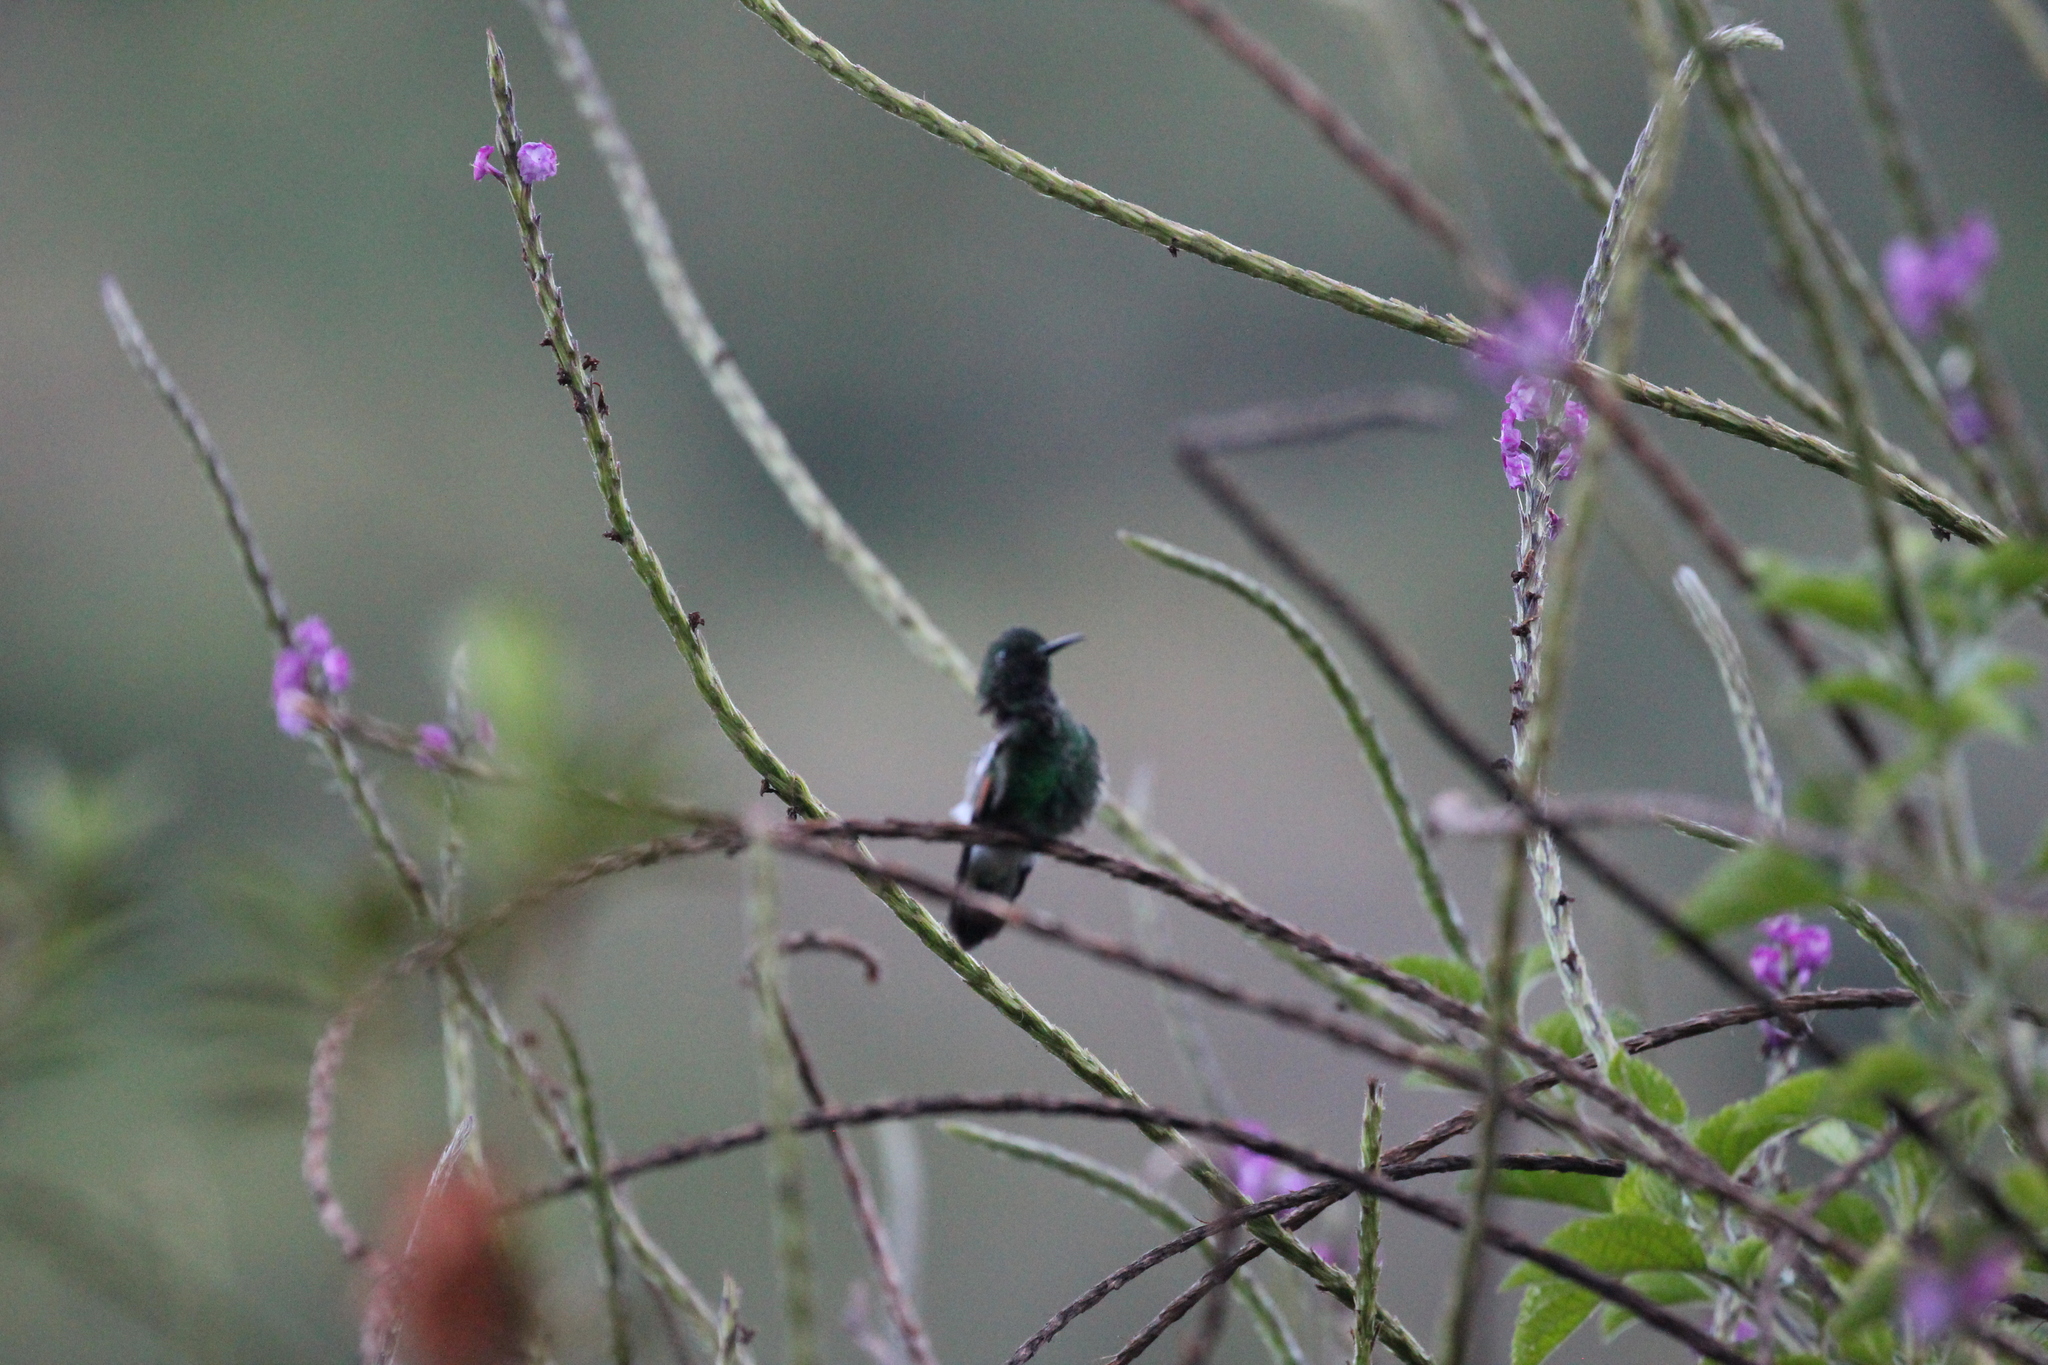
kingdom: Animalia
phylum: Chordata
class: Aves
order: Apodiformes
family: Trochilidae
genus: Eupherusa
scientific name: Eupherusa eximia
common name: Stripe-tailed hummingbird
